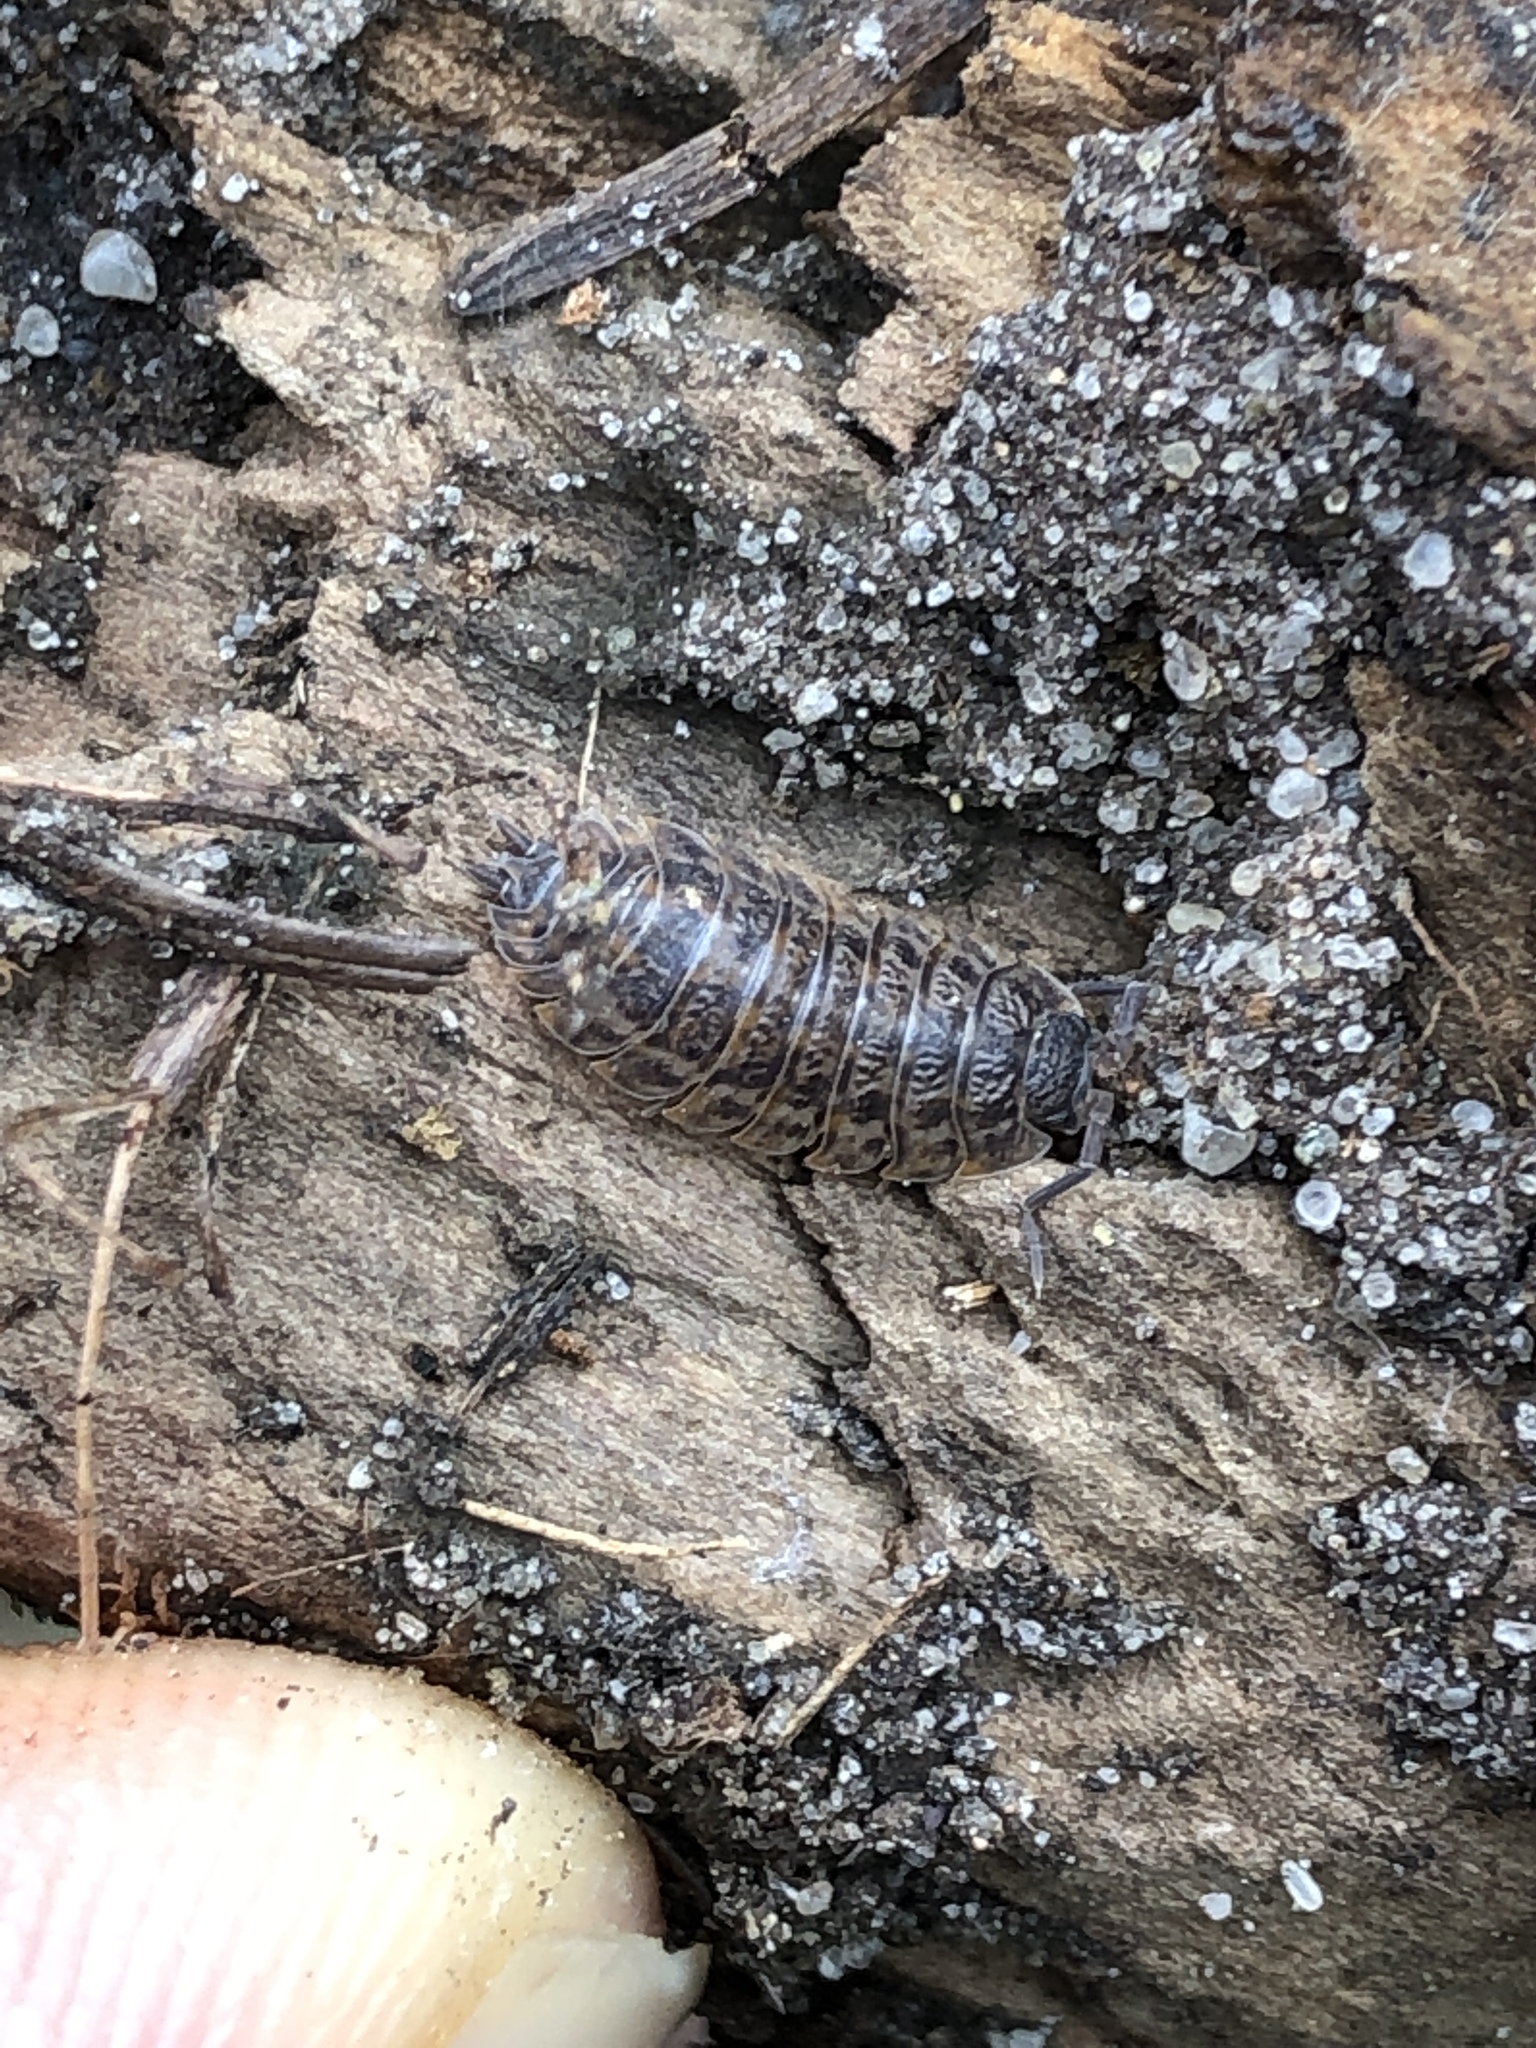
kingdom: Animalia
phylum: Arthropoda
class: Malacostraca
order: Isopoda
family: Trachelipodidae
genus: Trachelipus
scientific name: Trachelipus rathkii
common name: Isopod
